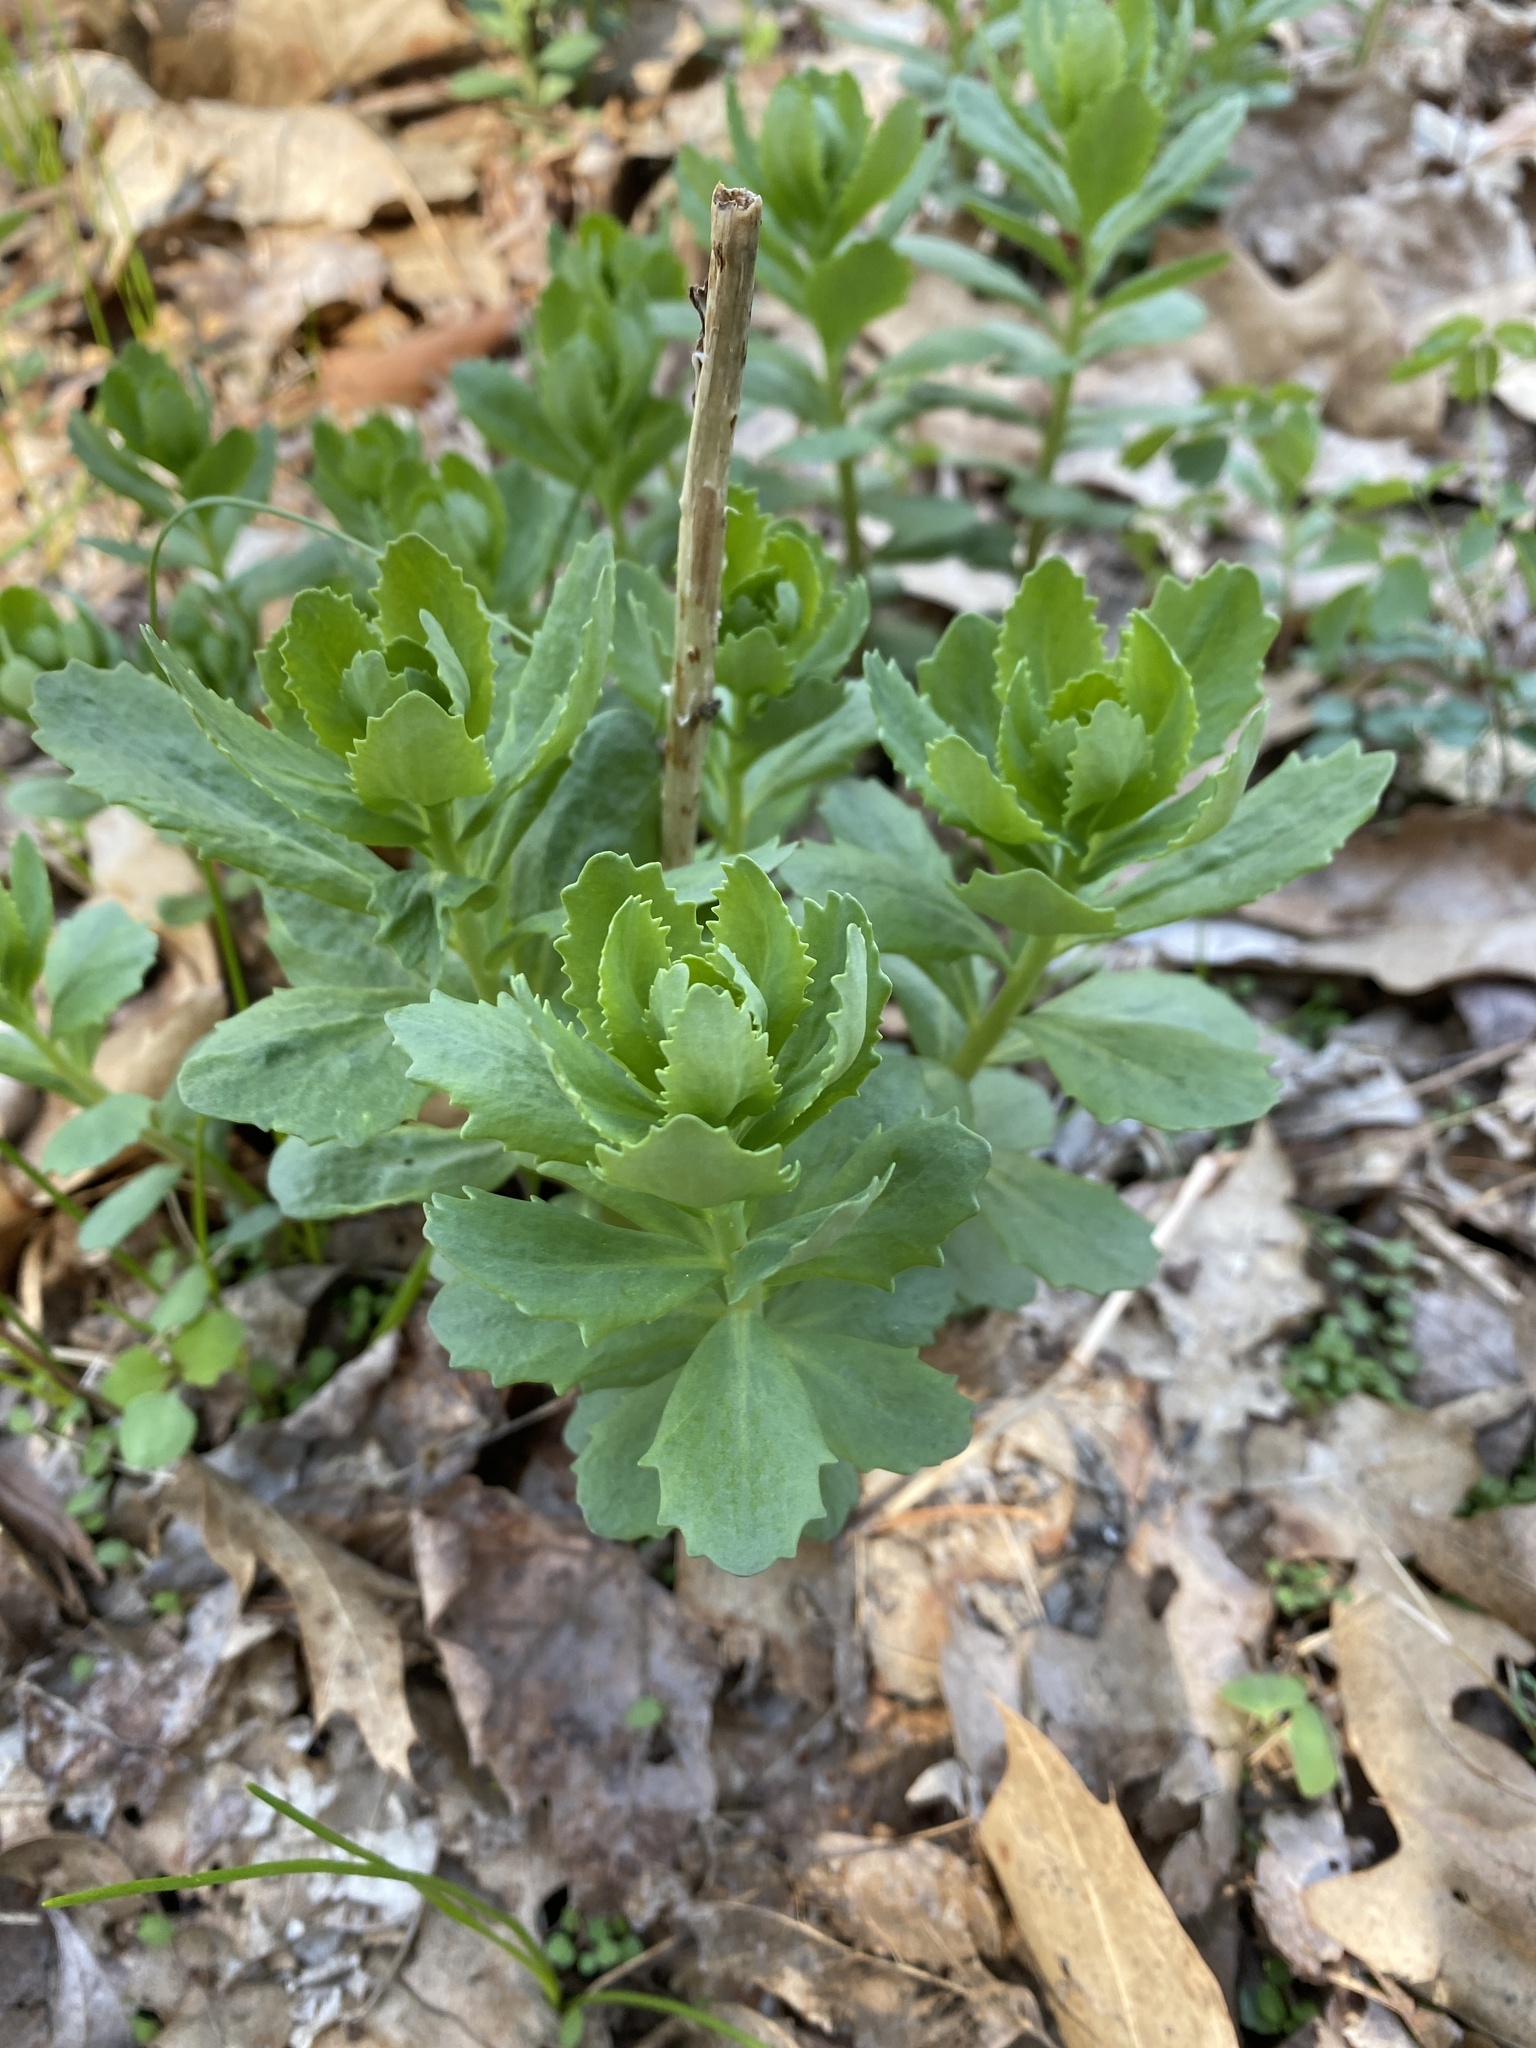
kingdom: Plantae
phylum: Tracheophyta
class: Magnoliopsida
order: Saxifragales
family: Crassulaceae
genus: Hylotelephium
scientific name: Hylotelephium telephium
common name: Live-forever
